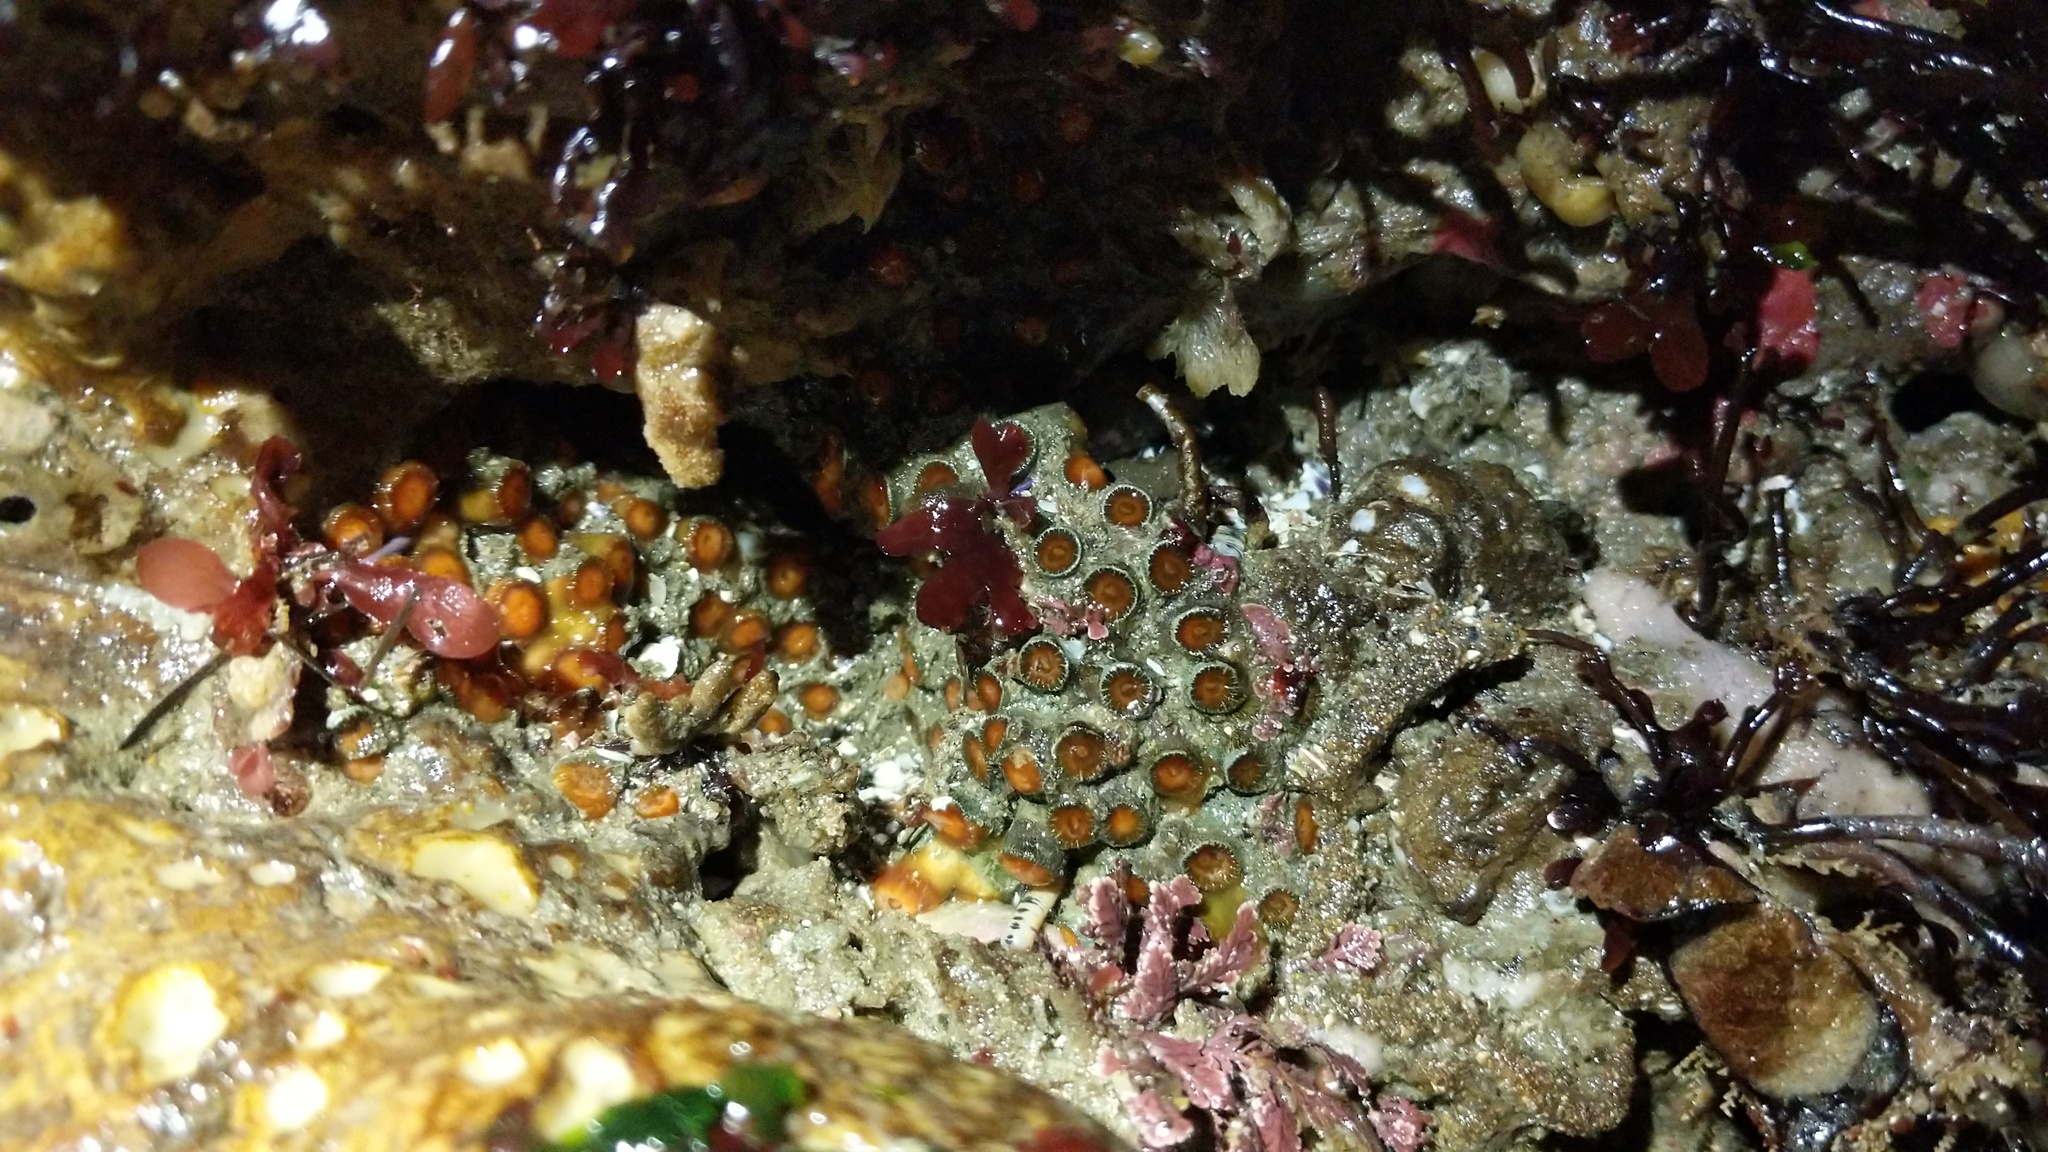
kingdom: Animalia
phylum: Cnidaria
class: Anthozoa
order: Scleractinia
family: Astrangiidae
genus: Astrangia
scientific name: Astrangia haimei
